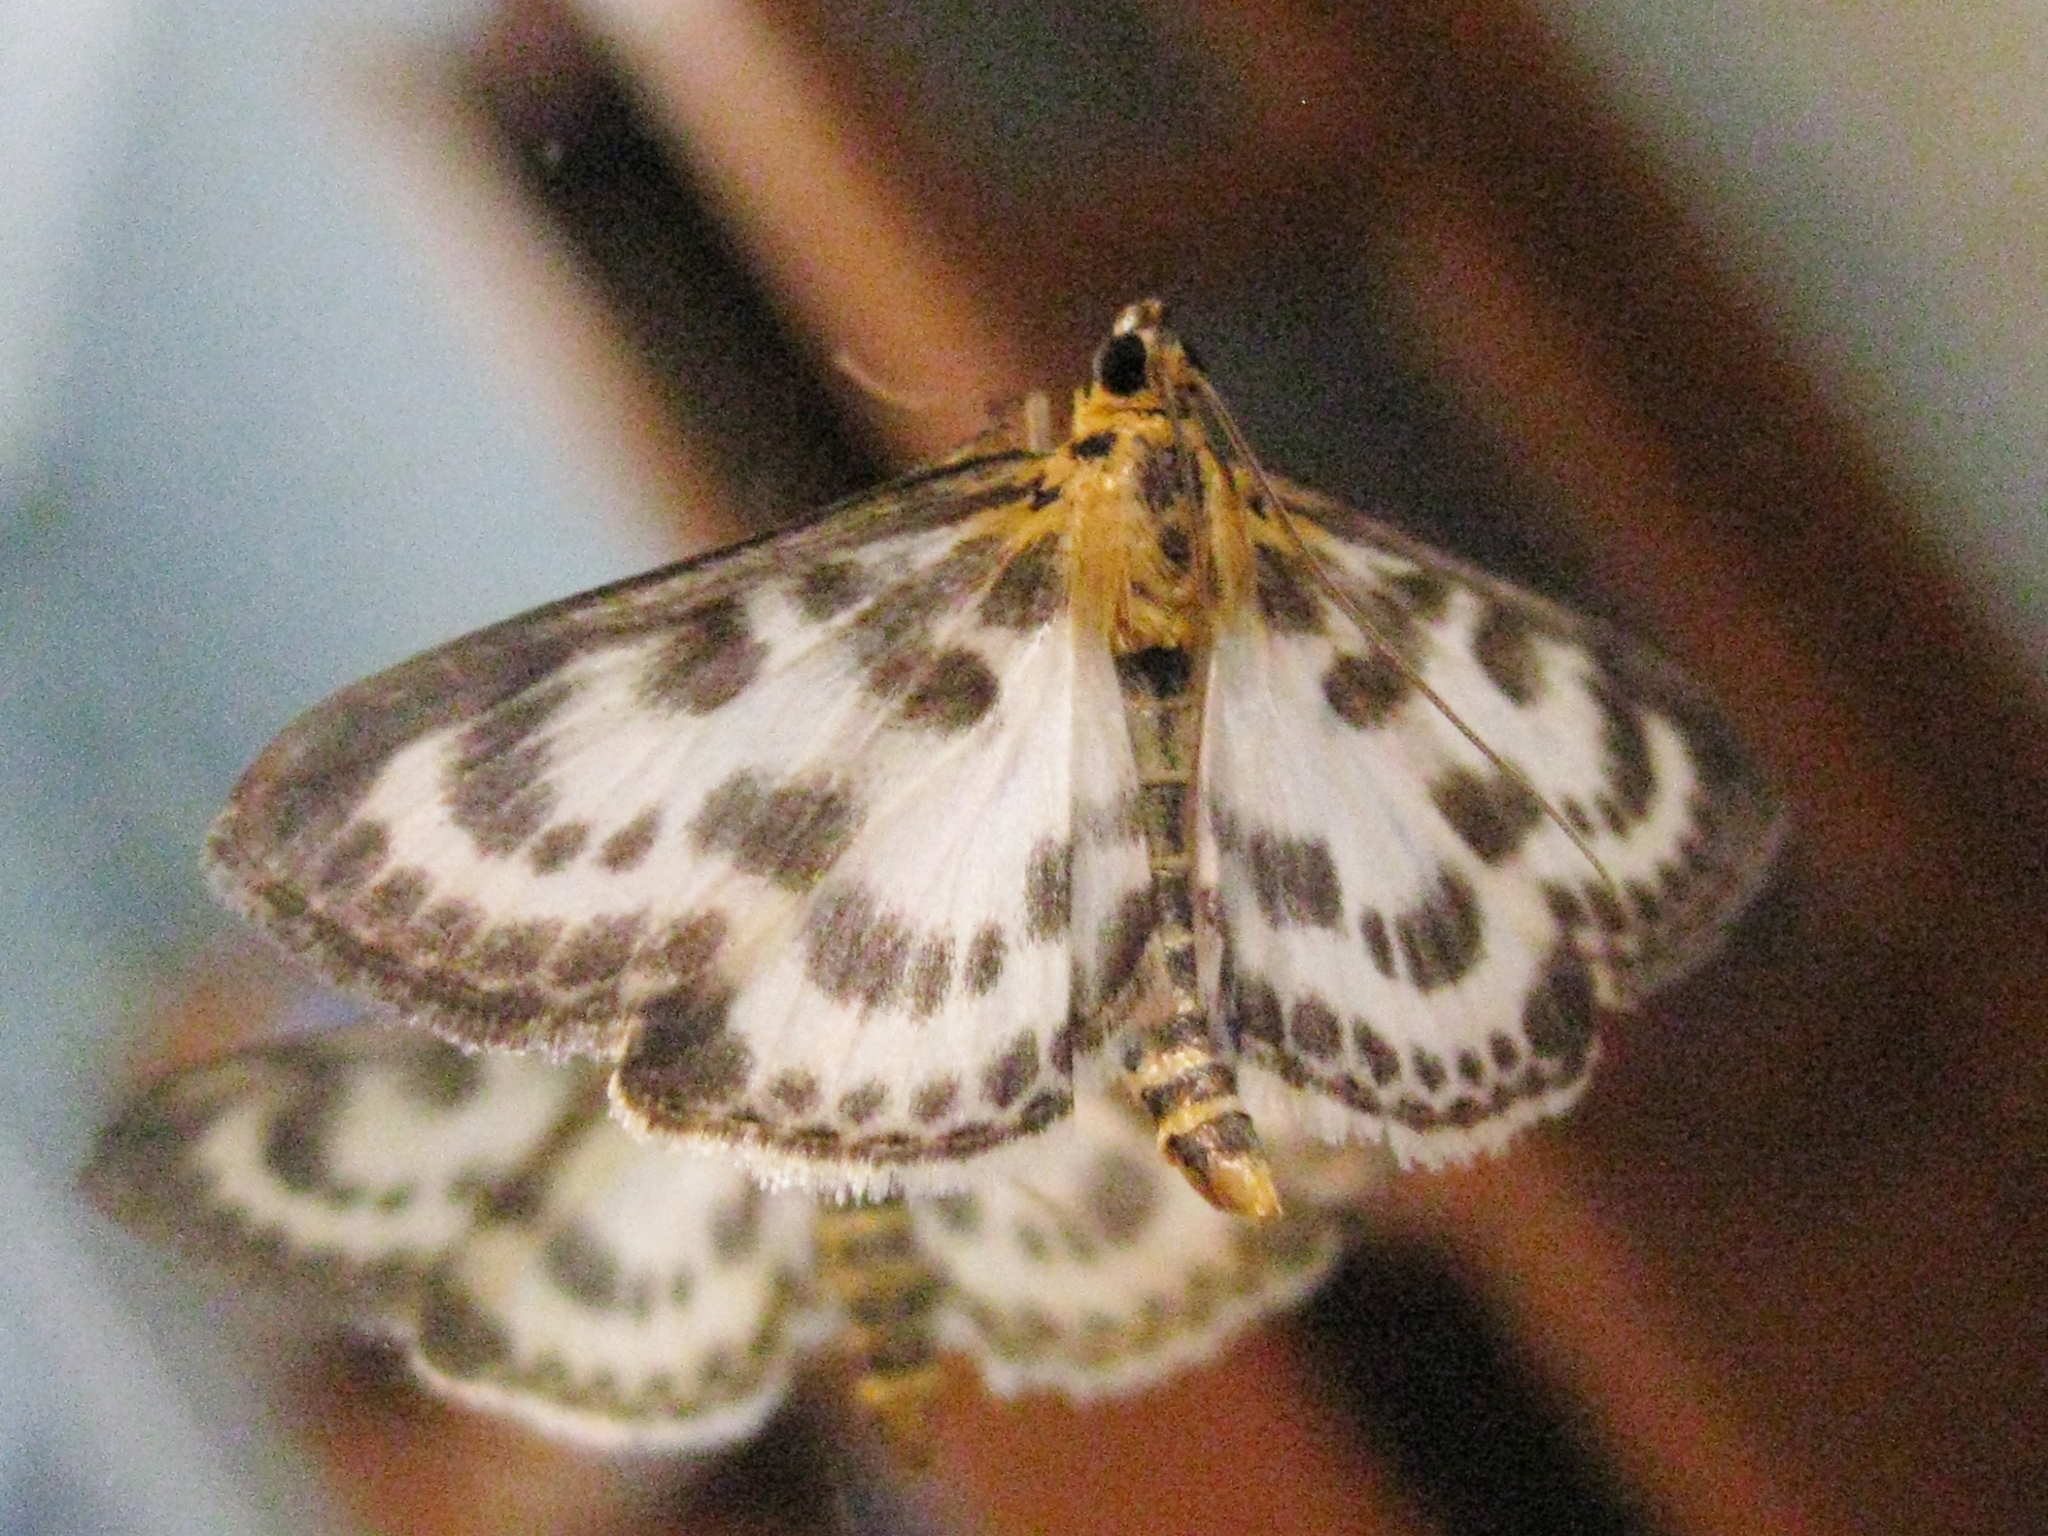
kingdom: Animalia
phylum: Arthropoda
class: Insecta
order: Lepidoptera
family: Crambidae
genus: Anania
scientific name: Anania hortulata
